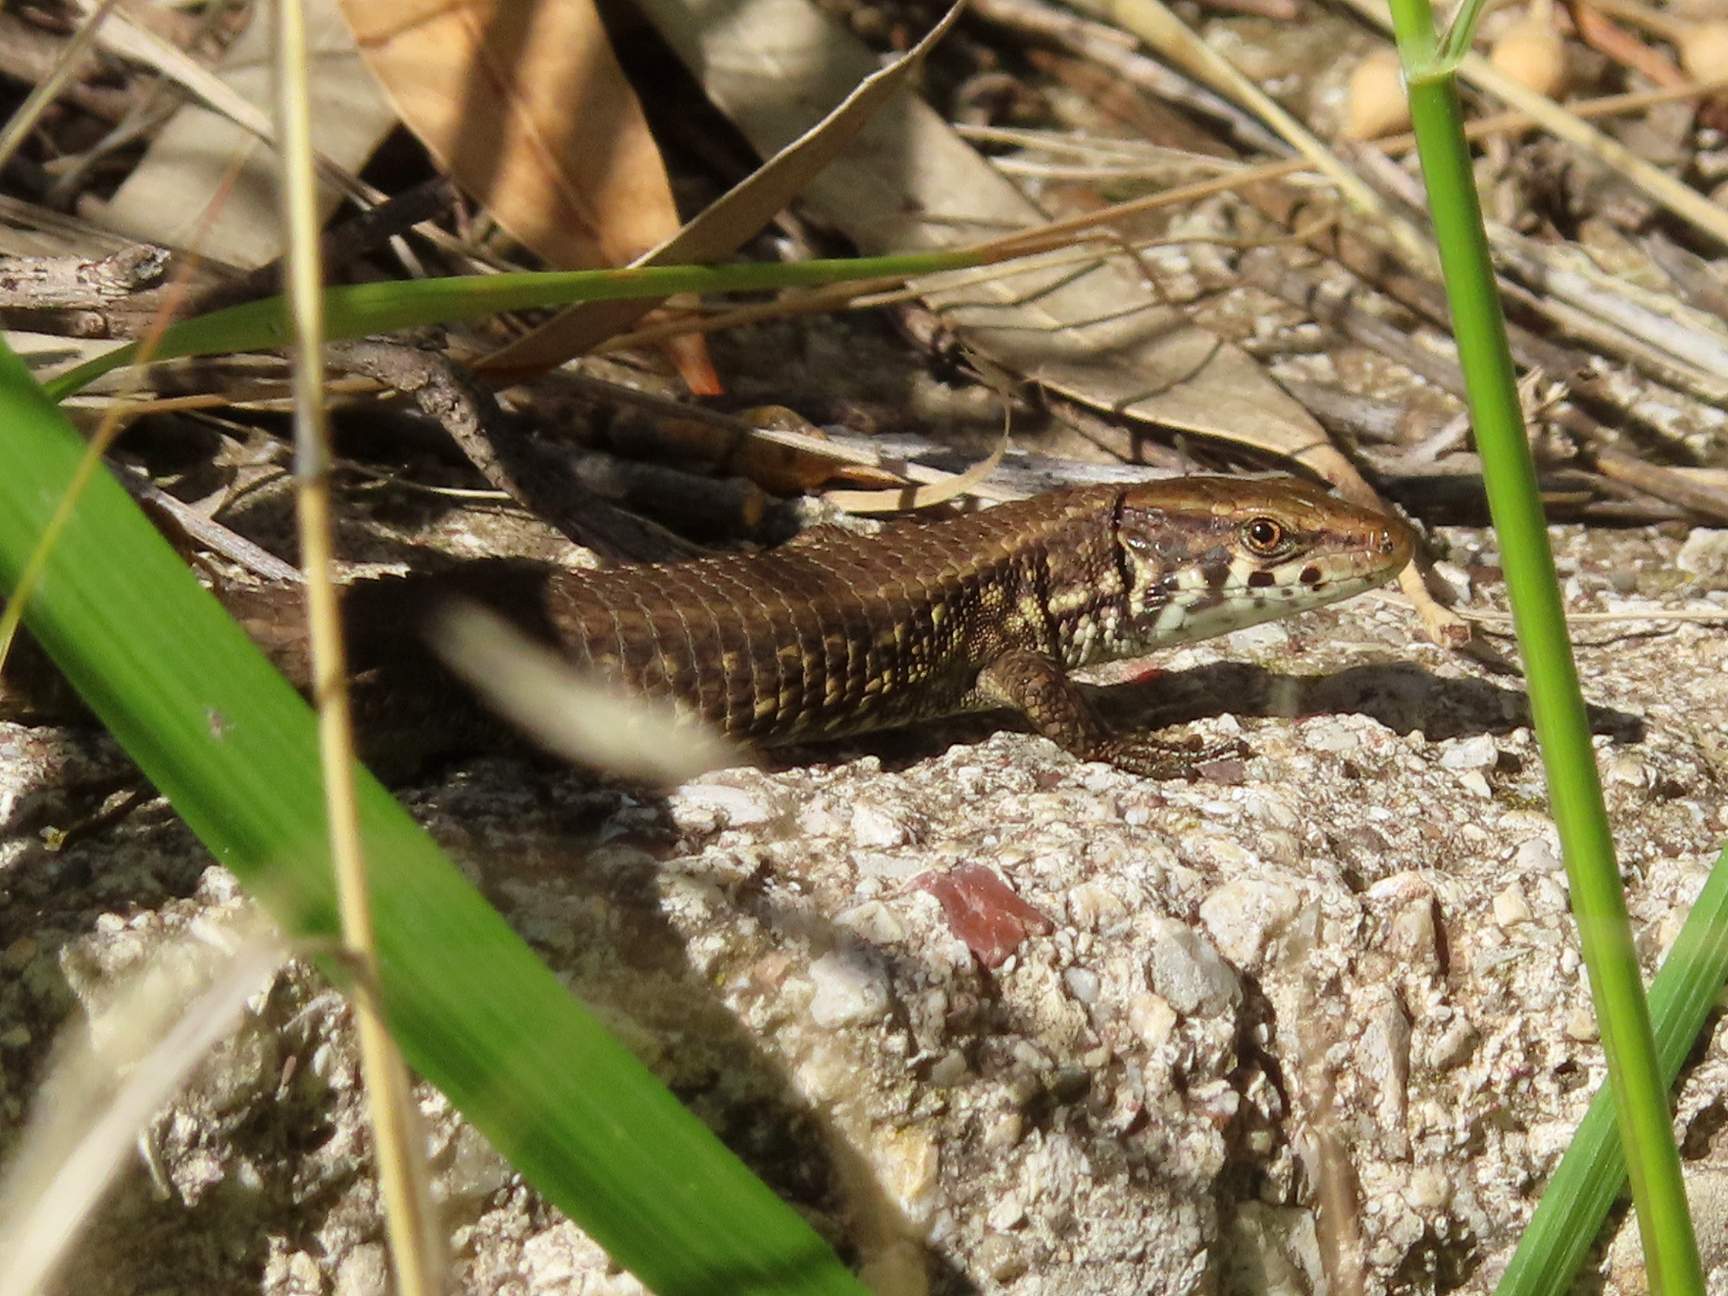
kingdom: Animalia
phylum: Chordata
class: Squamata
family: Lacertidae
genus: Algyroides
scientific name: Algyroides moreoticus
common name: Greek algyroides
